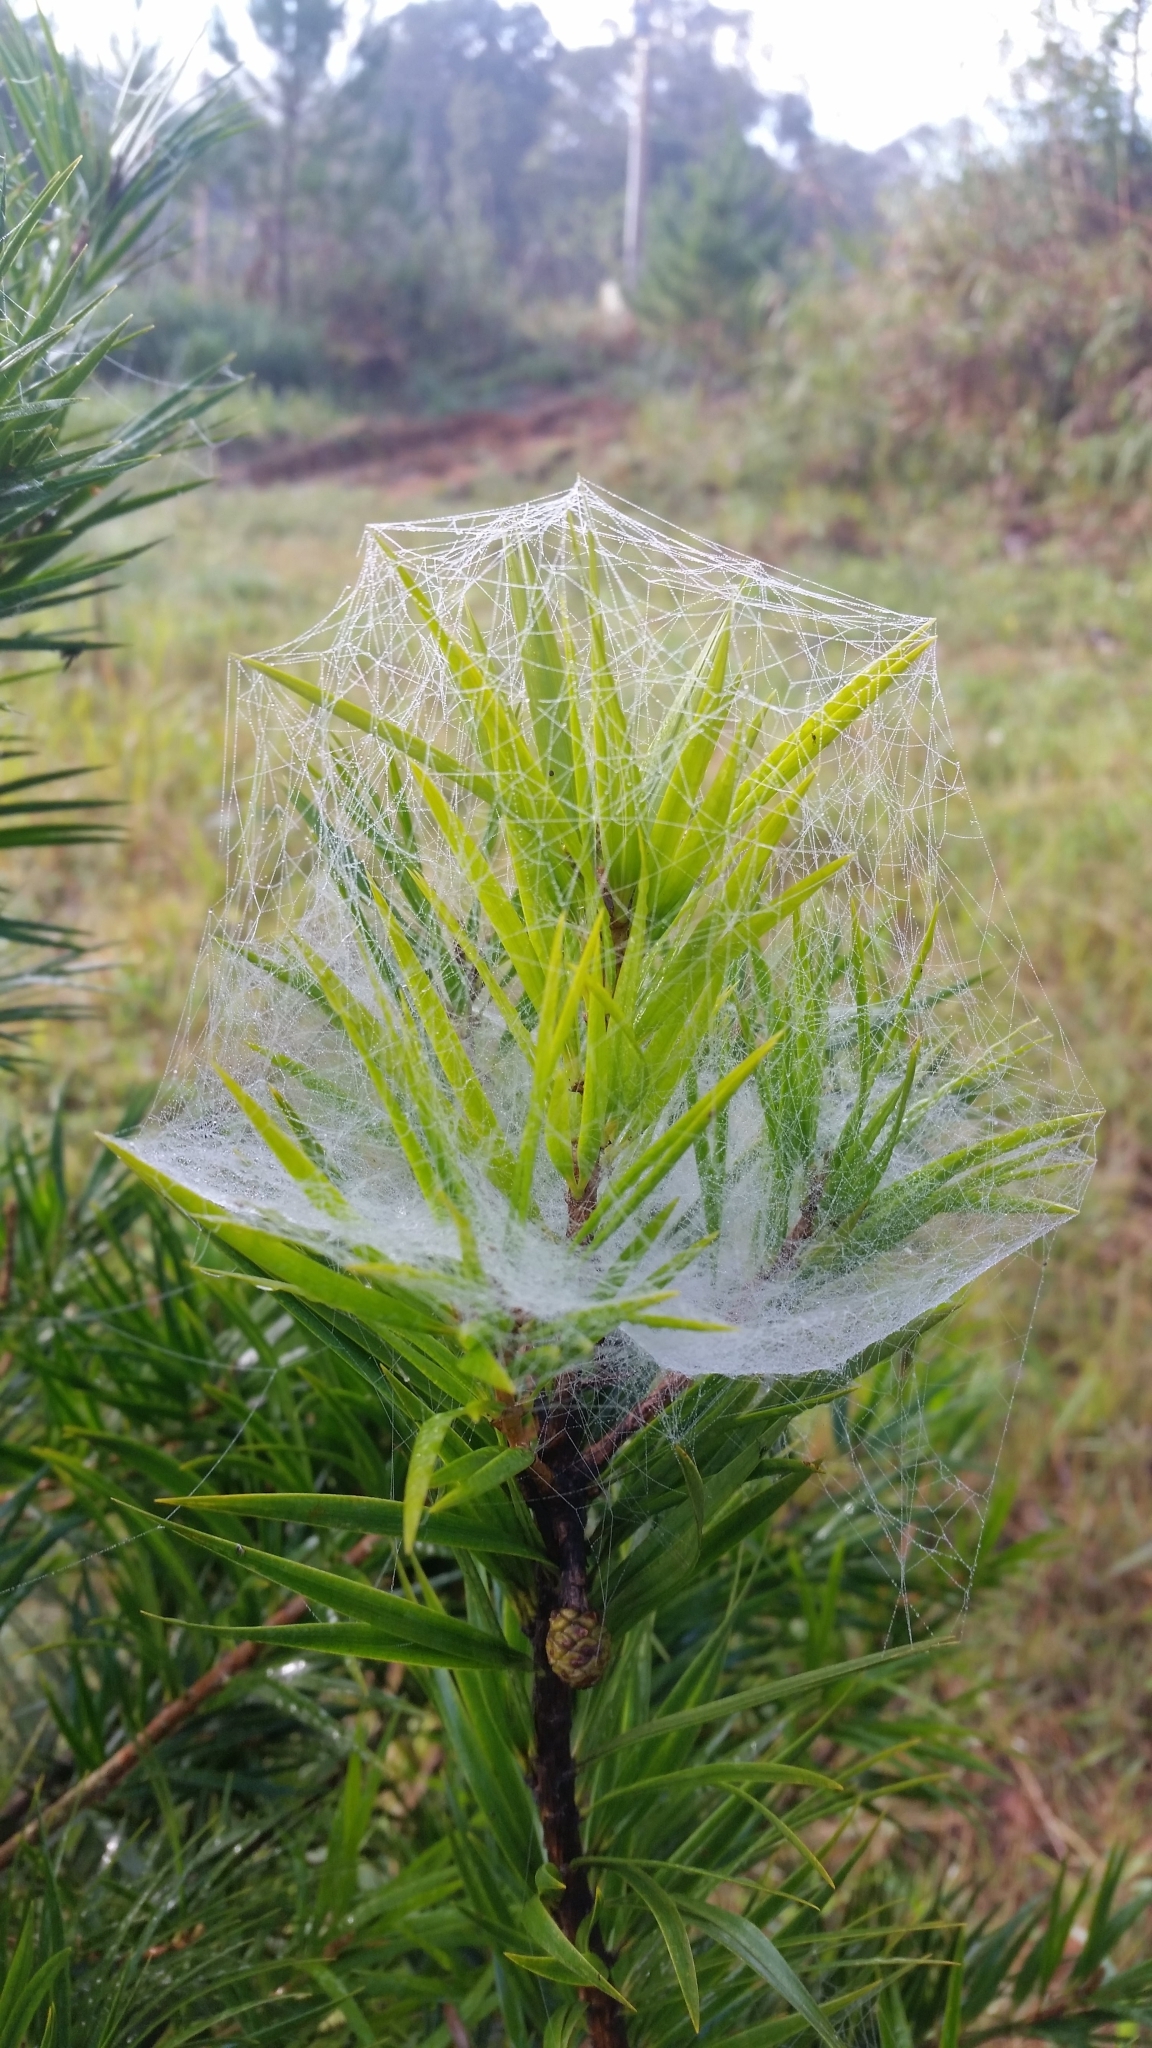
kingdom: Plantae
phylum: Tracheophyta
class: Pinopsida
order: Pinales
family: Pinaceae
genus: Pinus
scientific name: Pinus krempfii
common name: Krempf's pine
